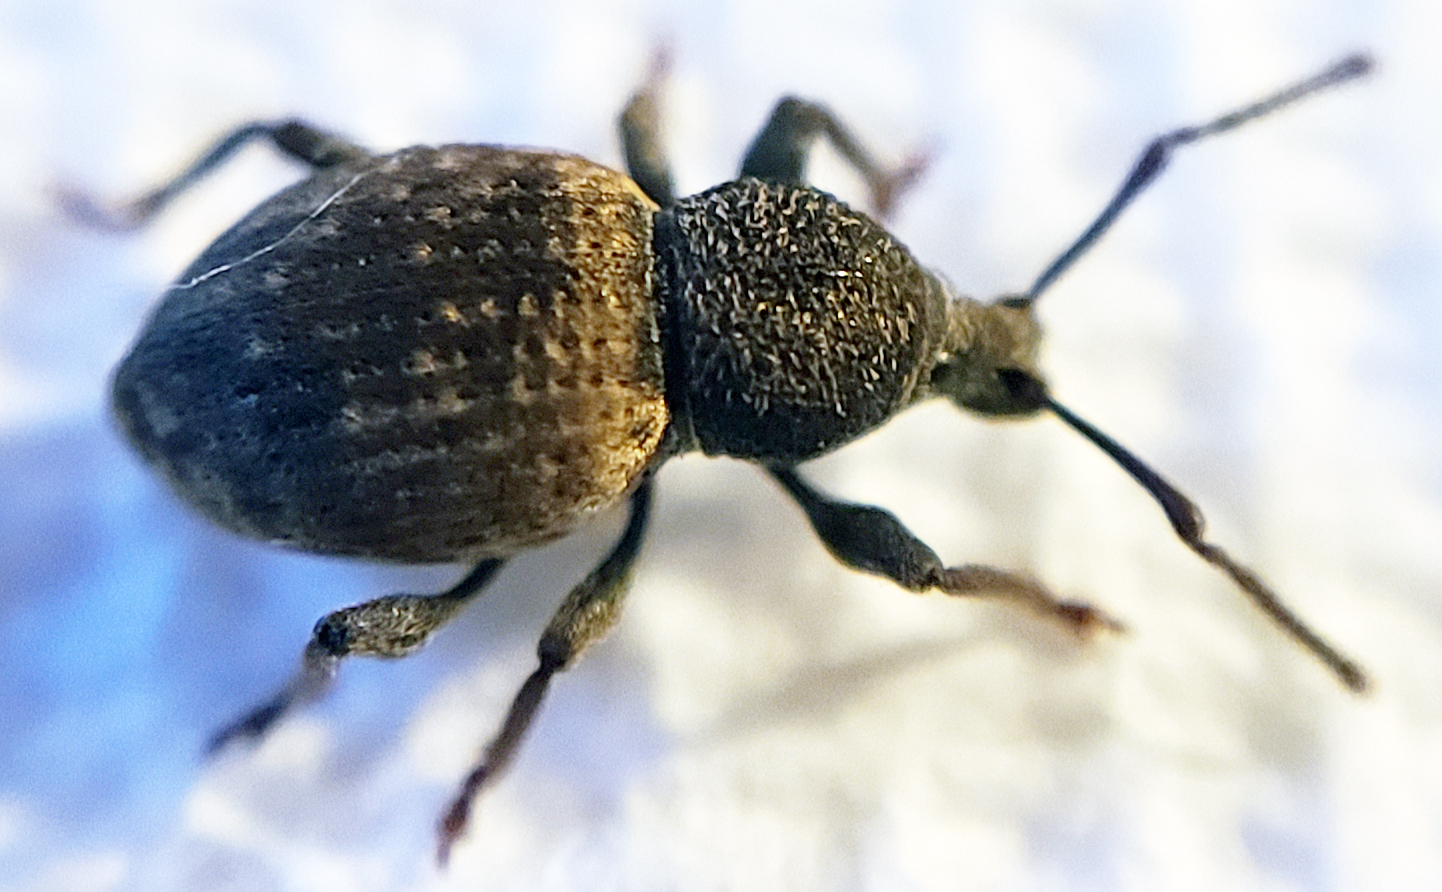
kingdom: Animalia
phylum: Arthropoda
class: Insecta
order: Coleoptera
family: Curculionidae
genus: Otiorhynchus
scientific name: Otiorhynchus raucus
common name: Weevil
